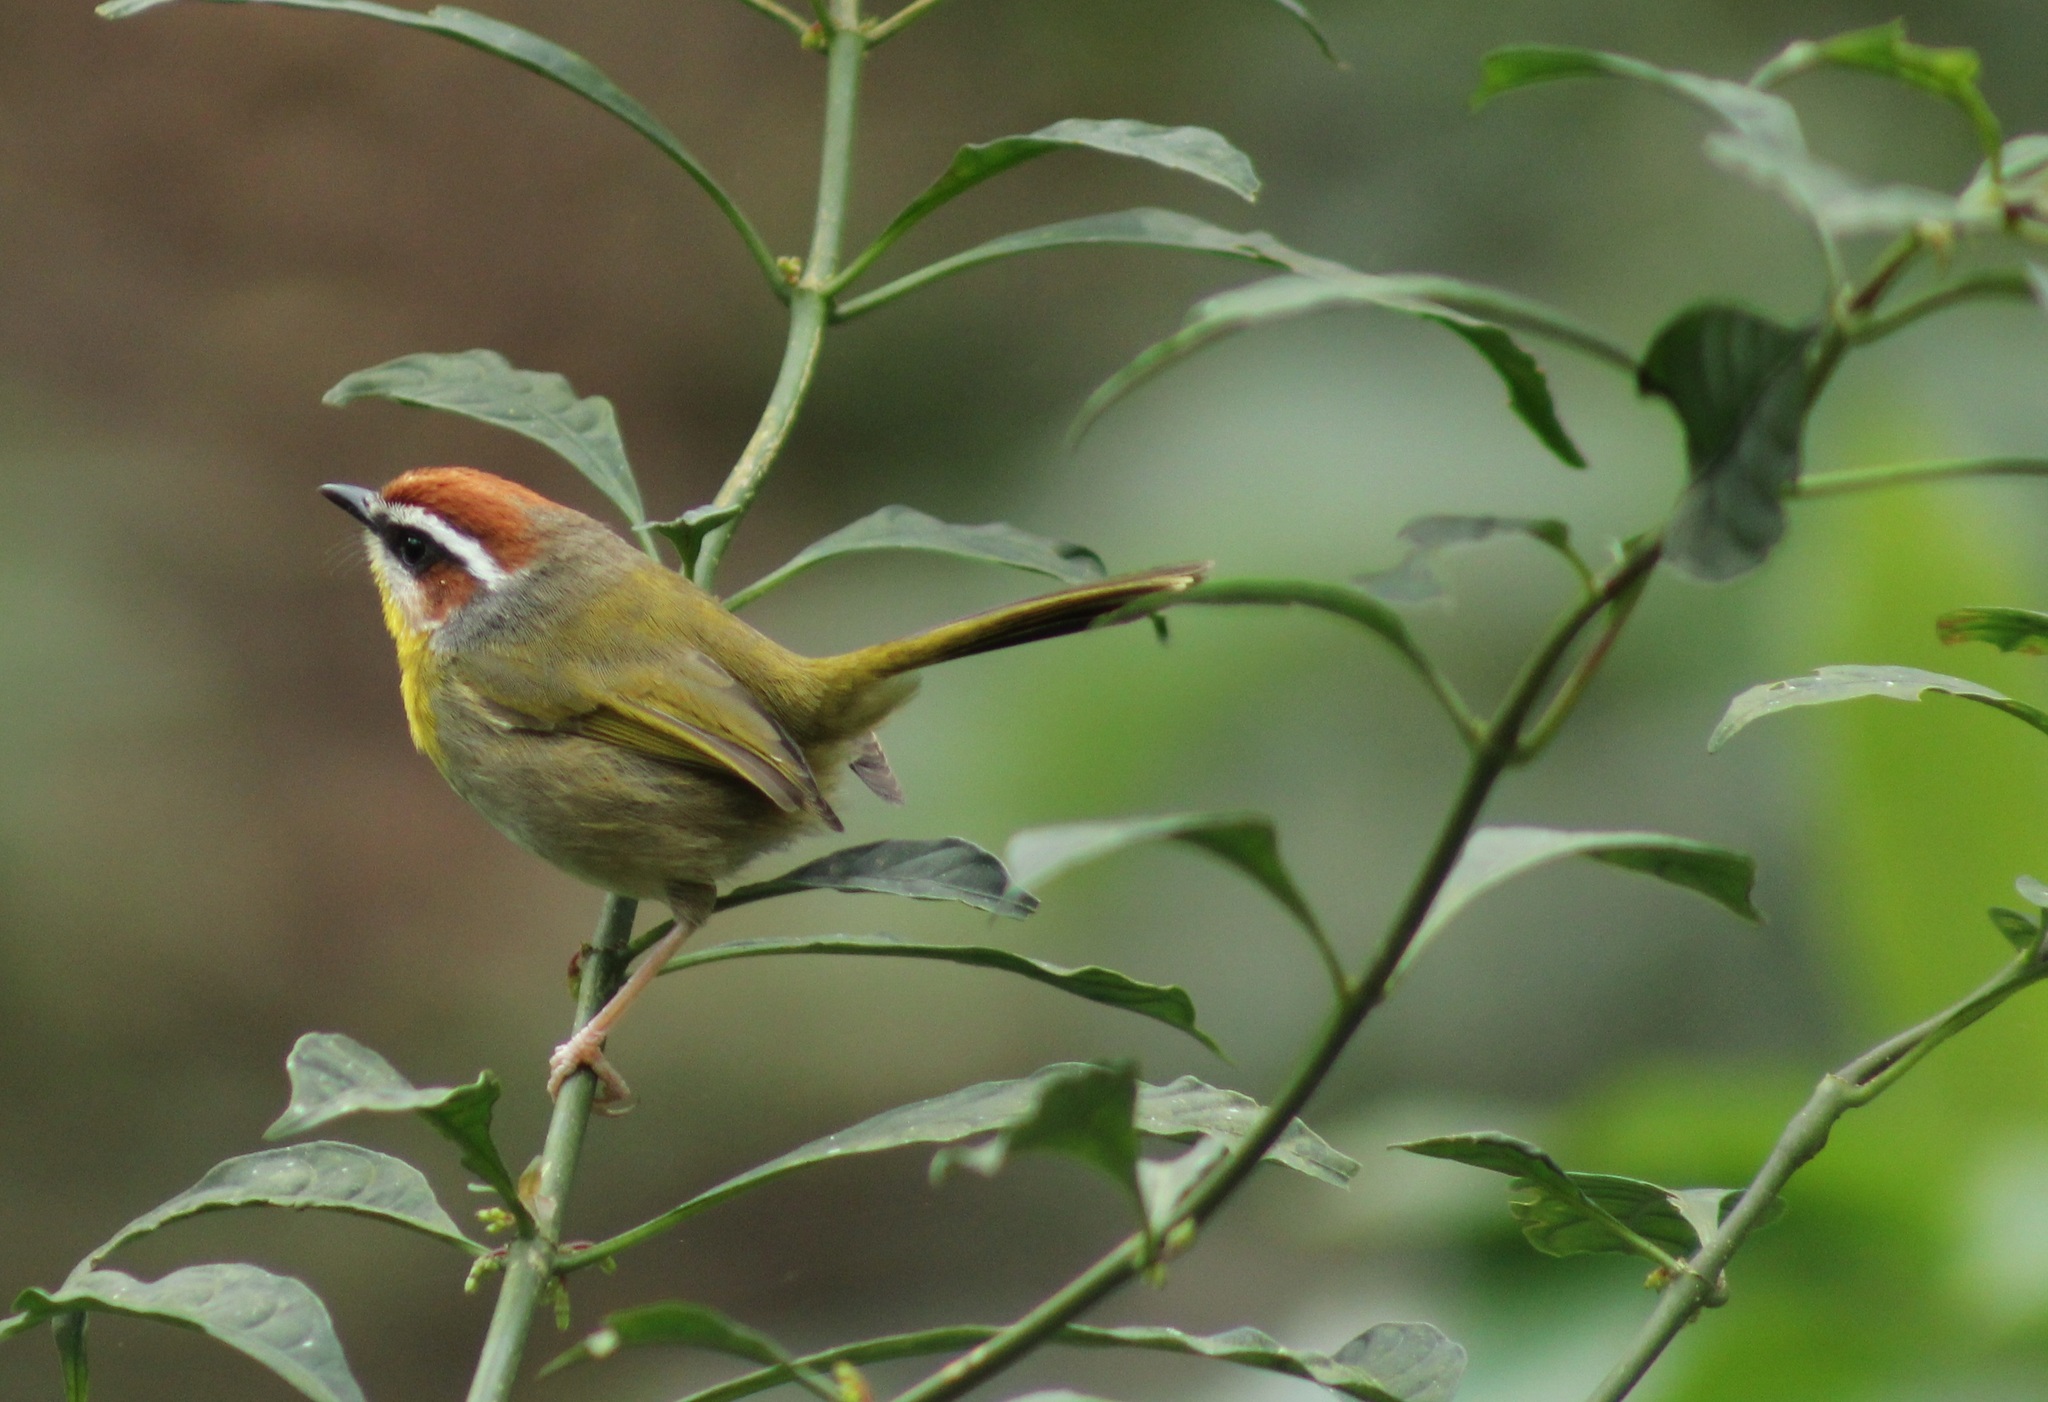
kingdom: Animalia
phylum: Chordata
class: Aves
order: Passeriformes
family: Parulidae
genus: Basileuterus
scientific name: Basileuterus rufifrons
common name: Rufous-capped warbler
